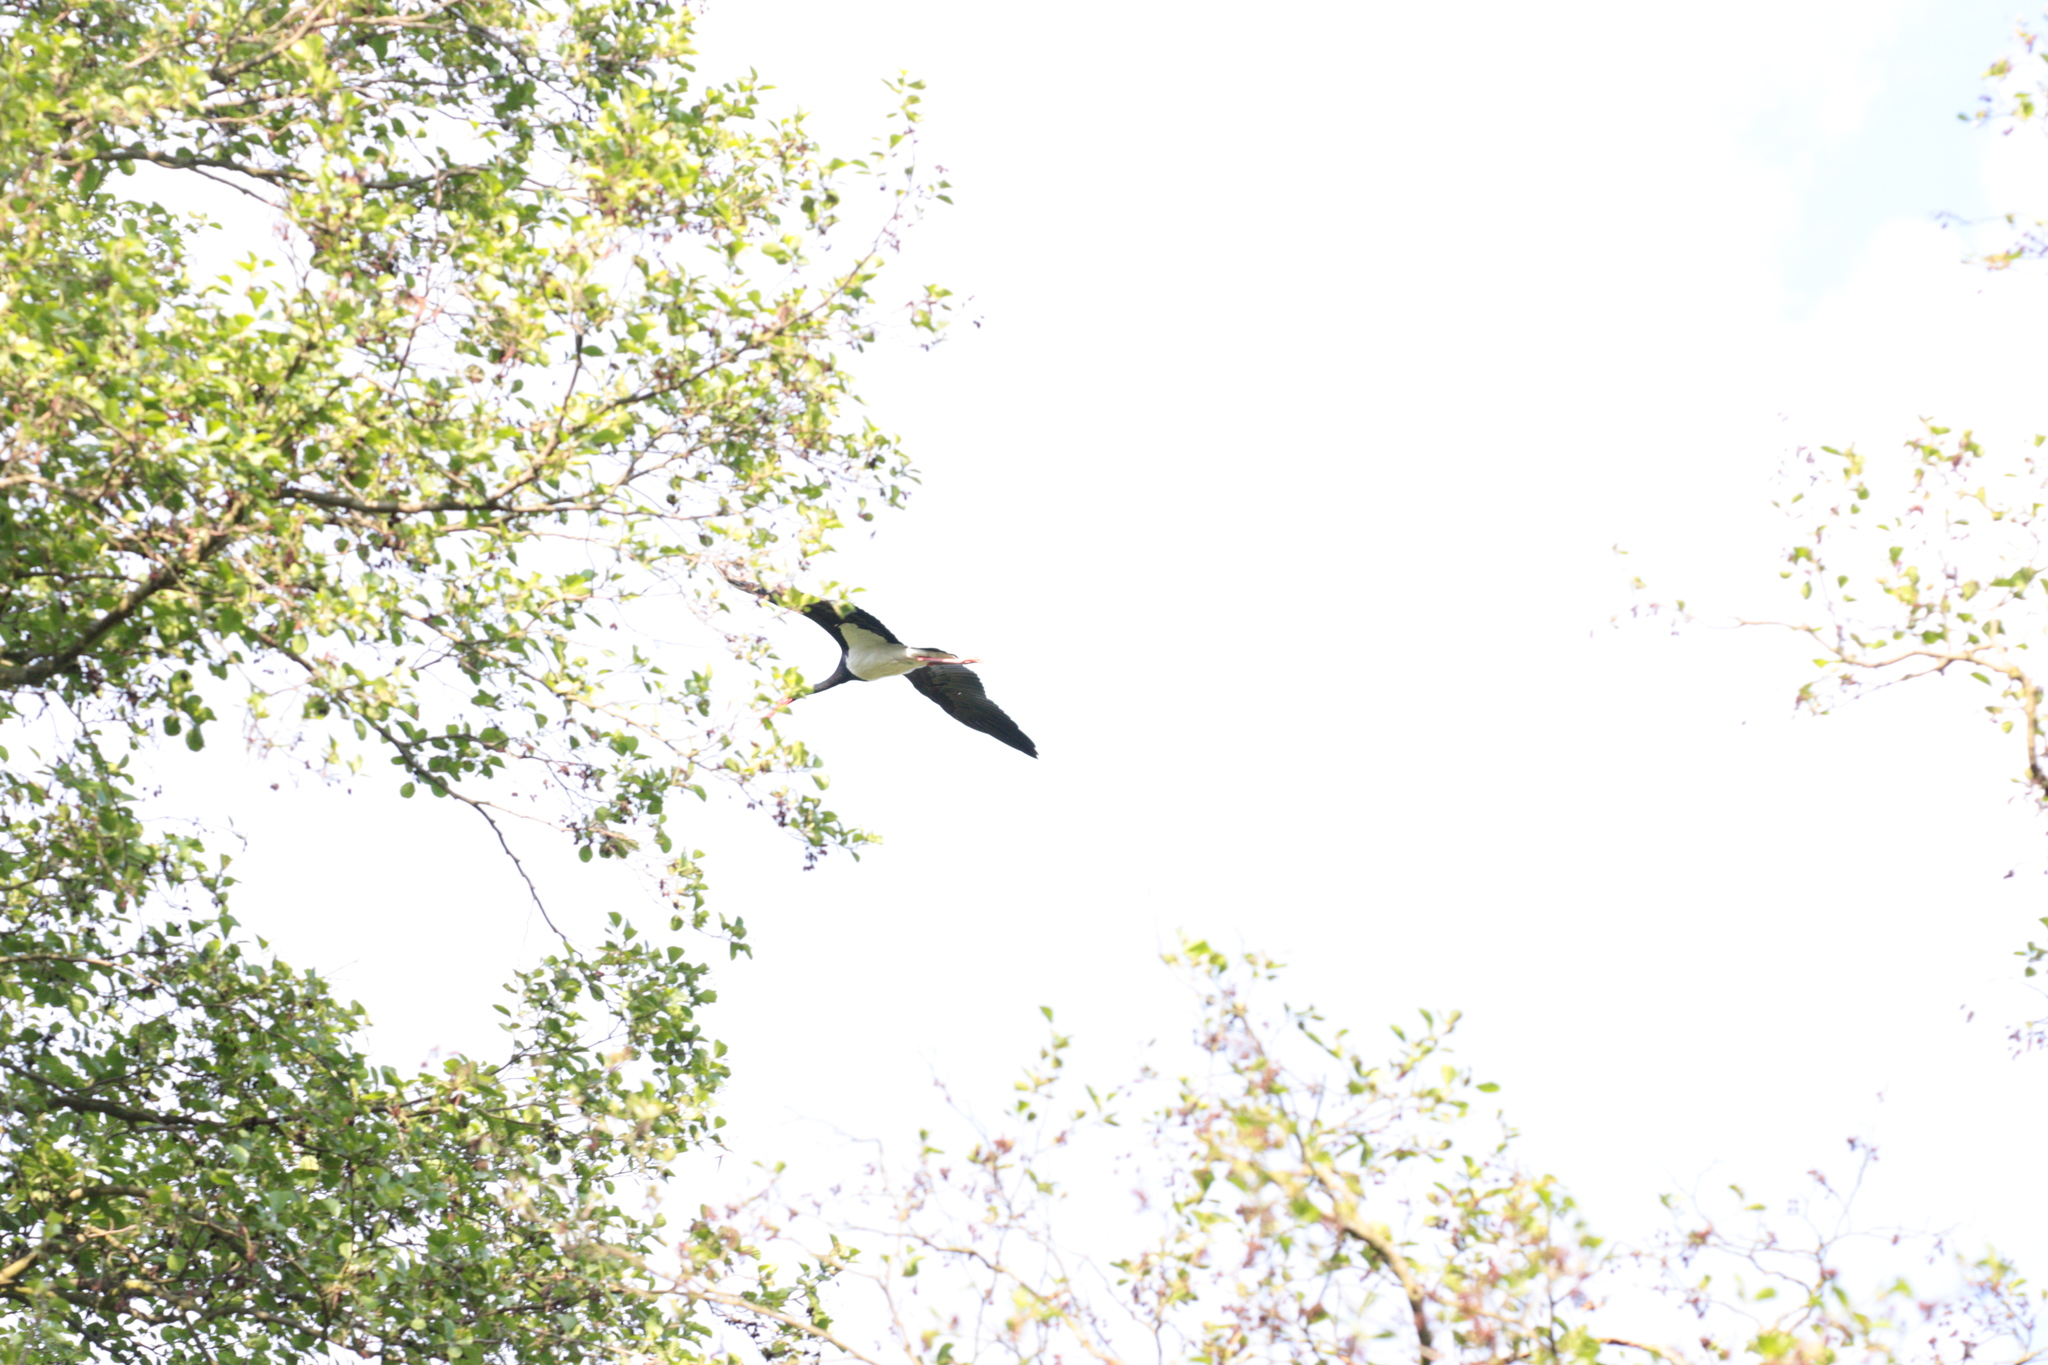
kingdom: Animalia
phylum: Chordata
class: Aves
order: Ciconiiformes
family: Ciconiidae
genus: Ciconia
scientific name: Ciconia nigra
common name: Black stork
